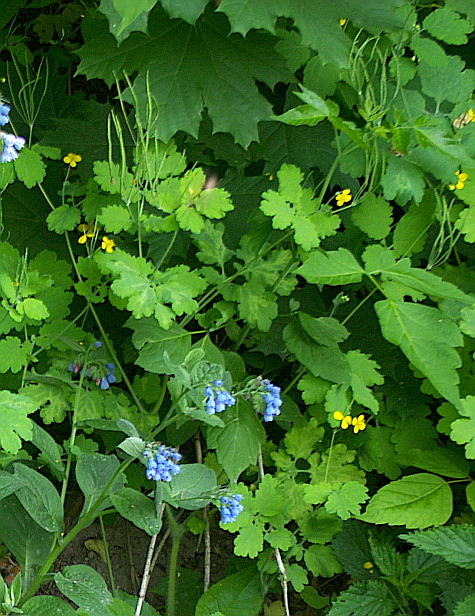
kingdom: Plantae
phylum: Tracheophyta
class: Magnoliopsida
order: Ranunculales
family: Papaveraceae
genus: Chelidonium
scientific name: Chelidonium majus
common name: Greater celandine
